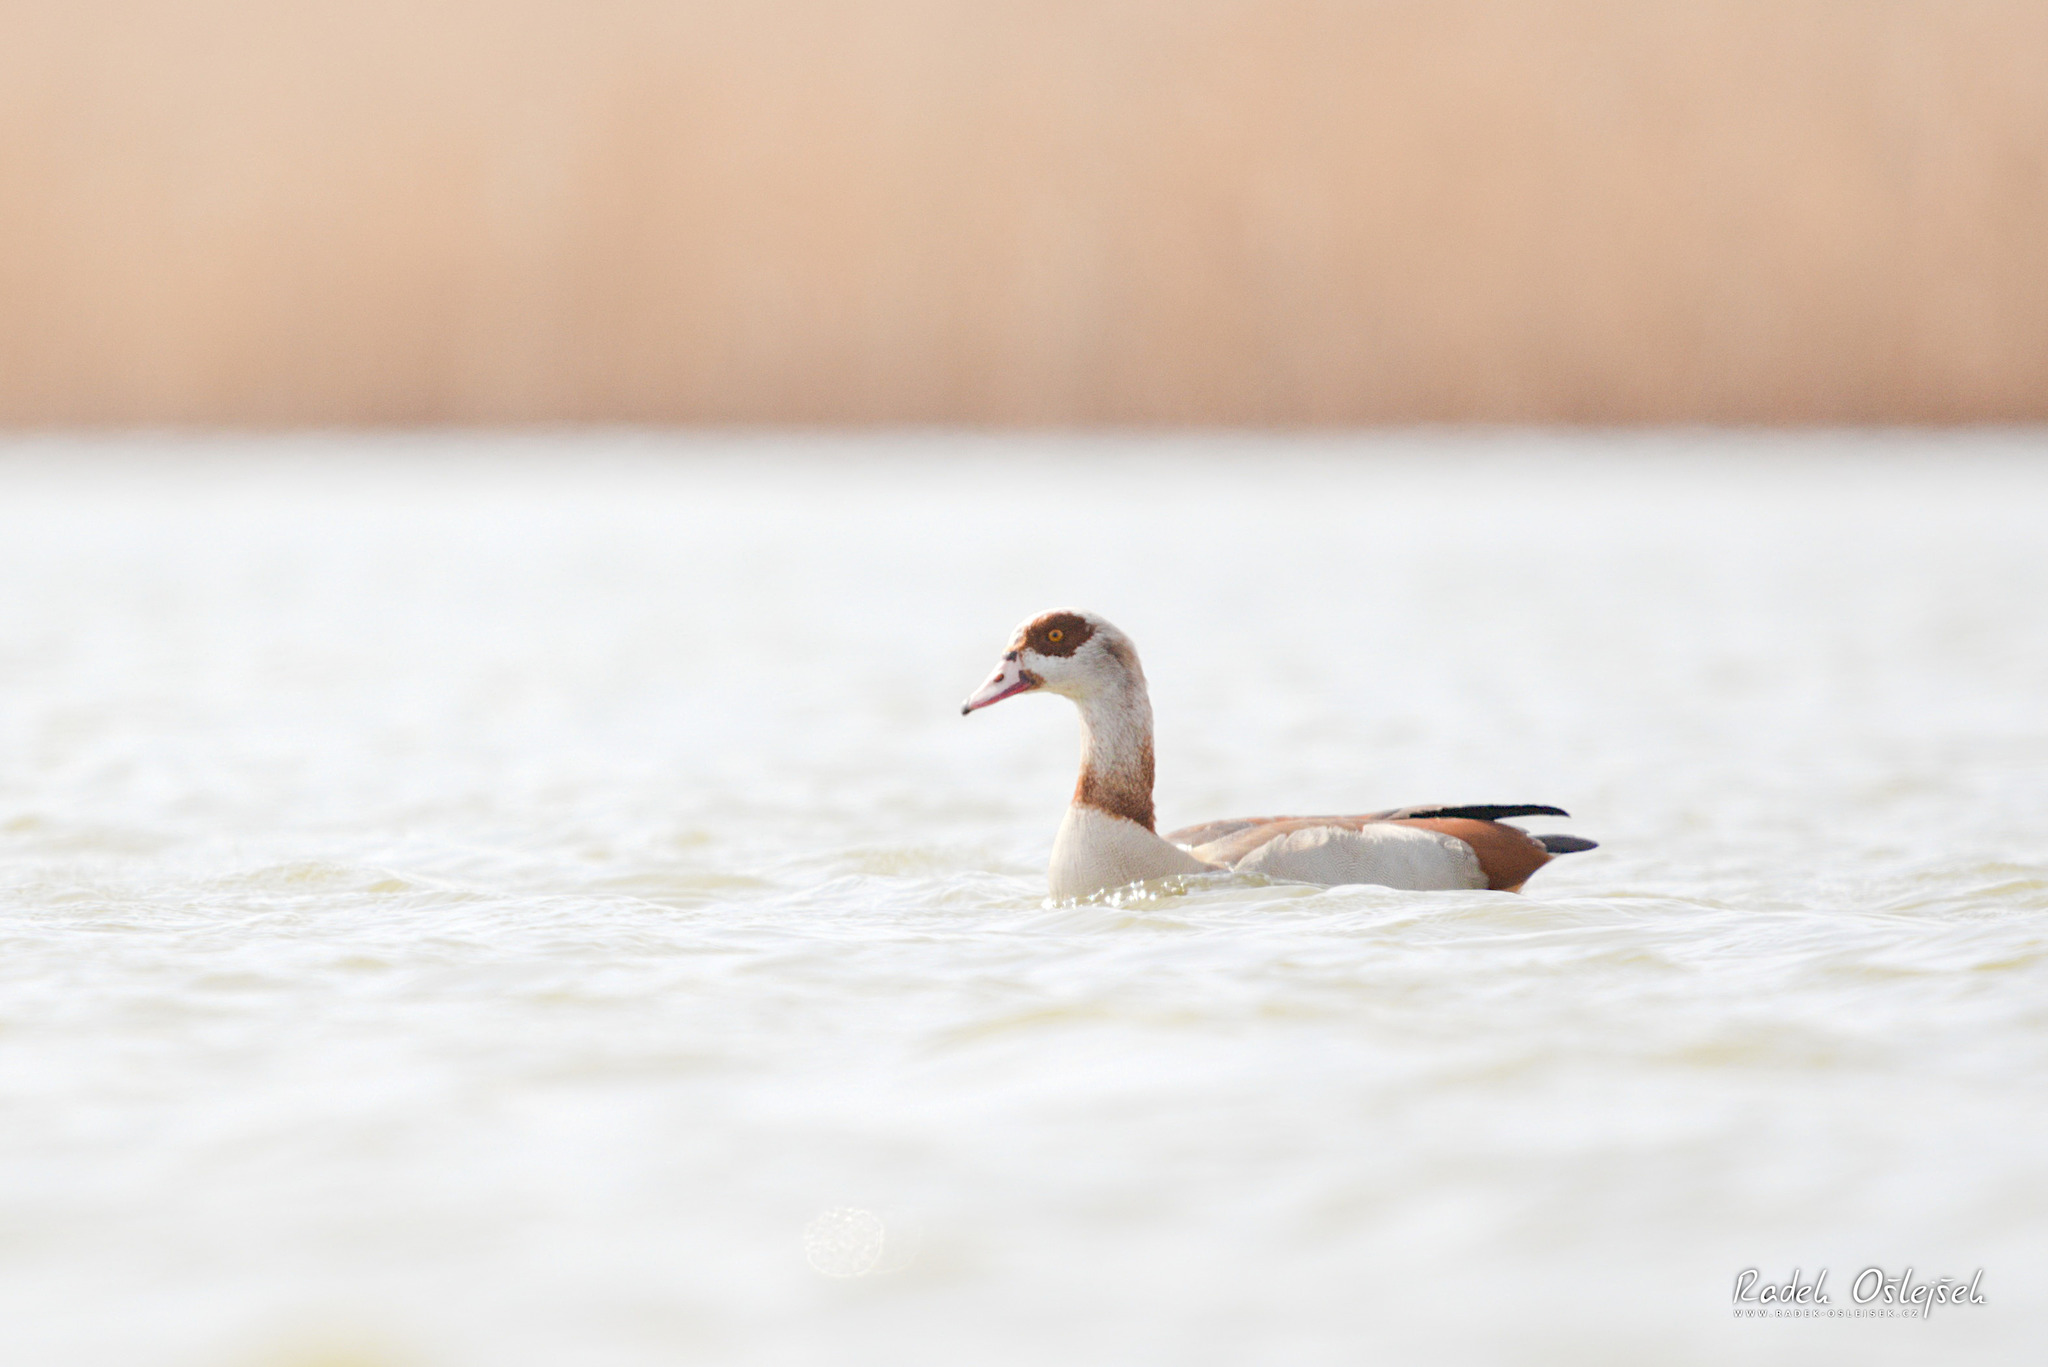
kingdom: Animalia
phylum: Chordata
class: Aves
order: Anseriformes
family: Anatidae
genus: Alopochen
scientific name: Alopochen aegyptiaca
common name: Egyptian goose
